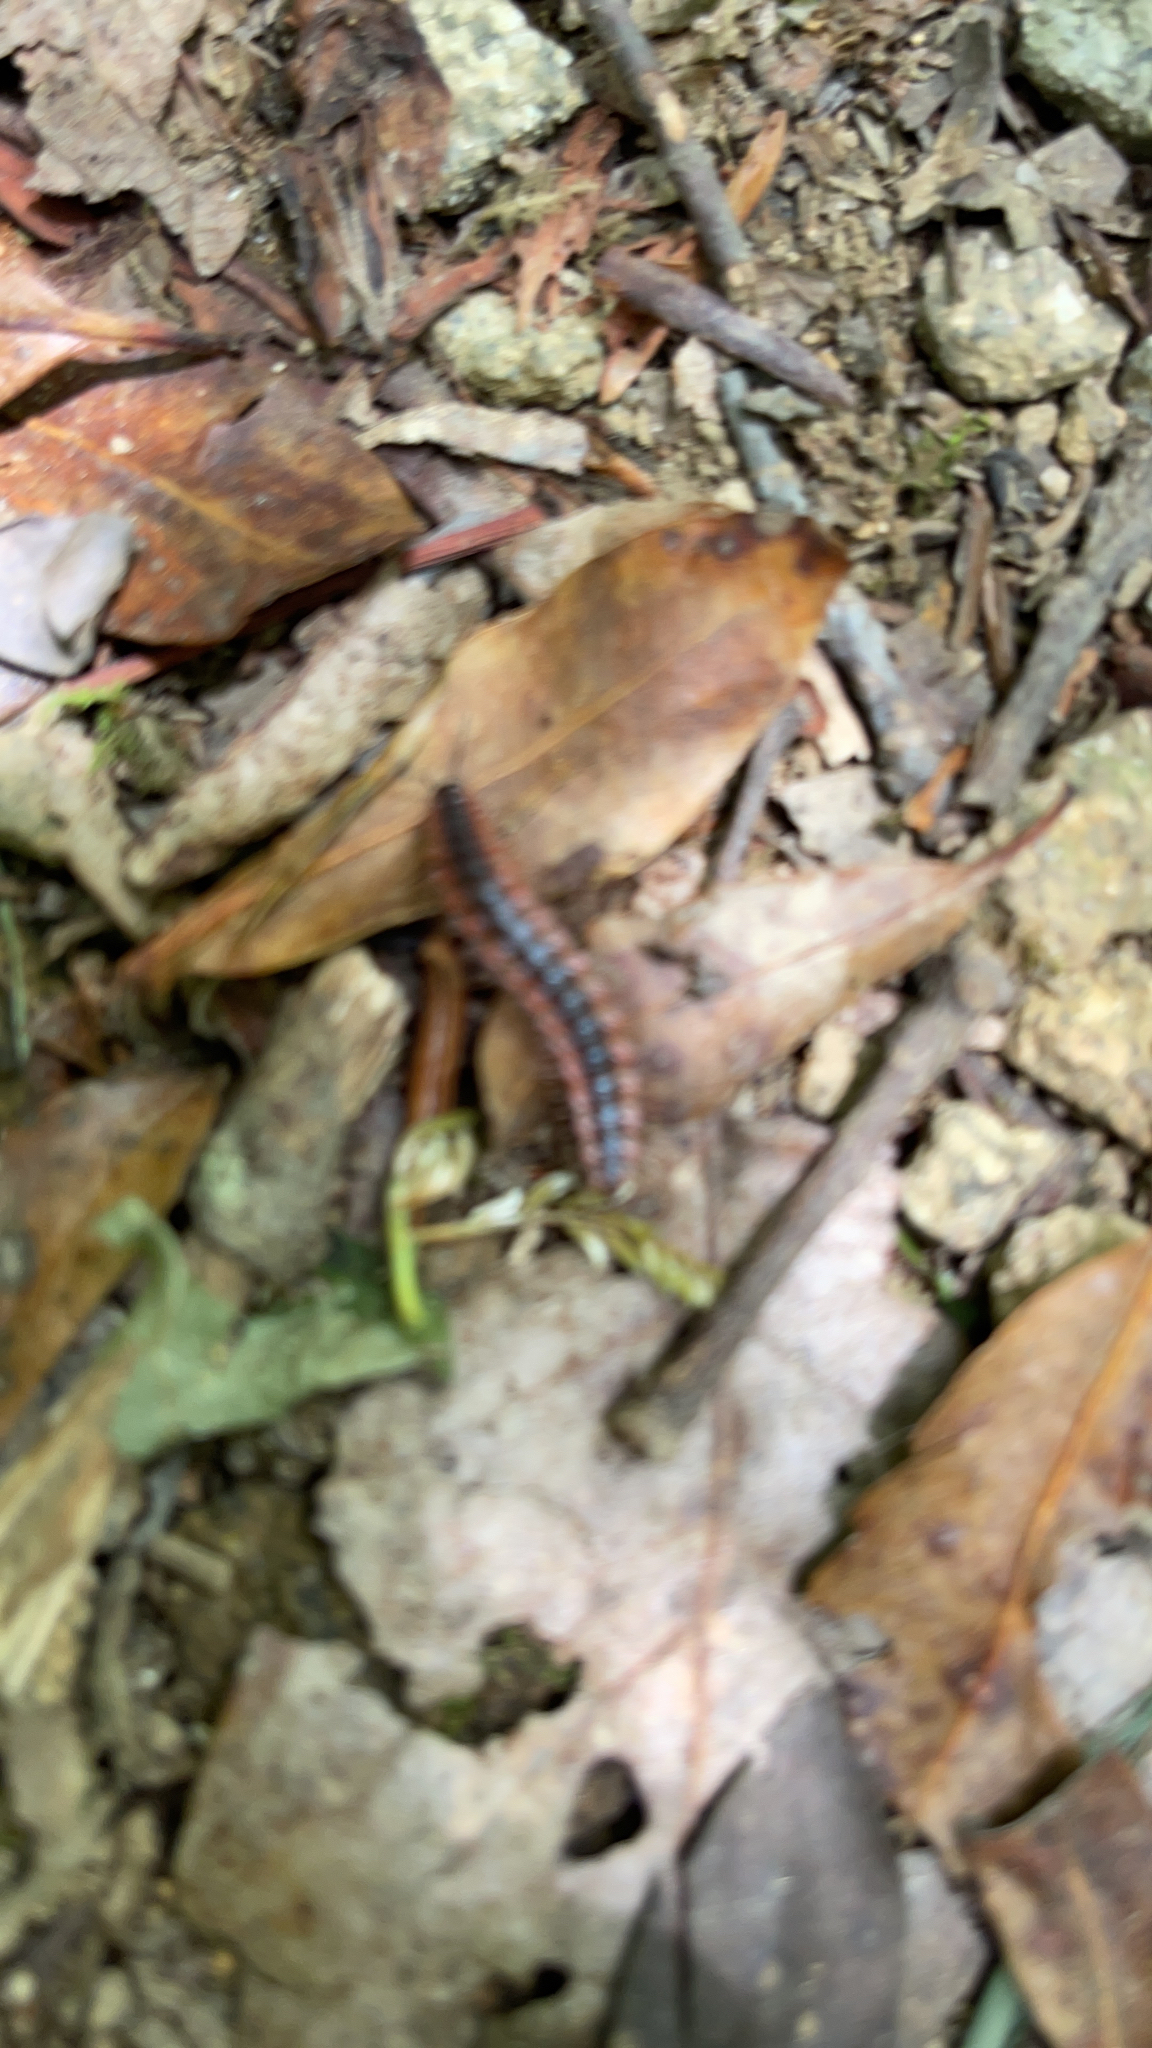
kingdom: Animalia
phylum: Arthropoda
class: Diplopoda
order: Polydesmida
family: Polydesmidae
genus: Pseudopolydesmus
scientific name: Pseudopolydesmus canadensis
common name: Canadian flat-back millipede
